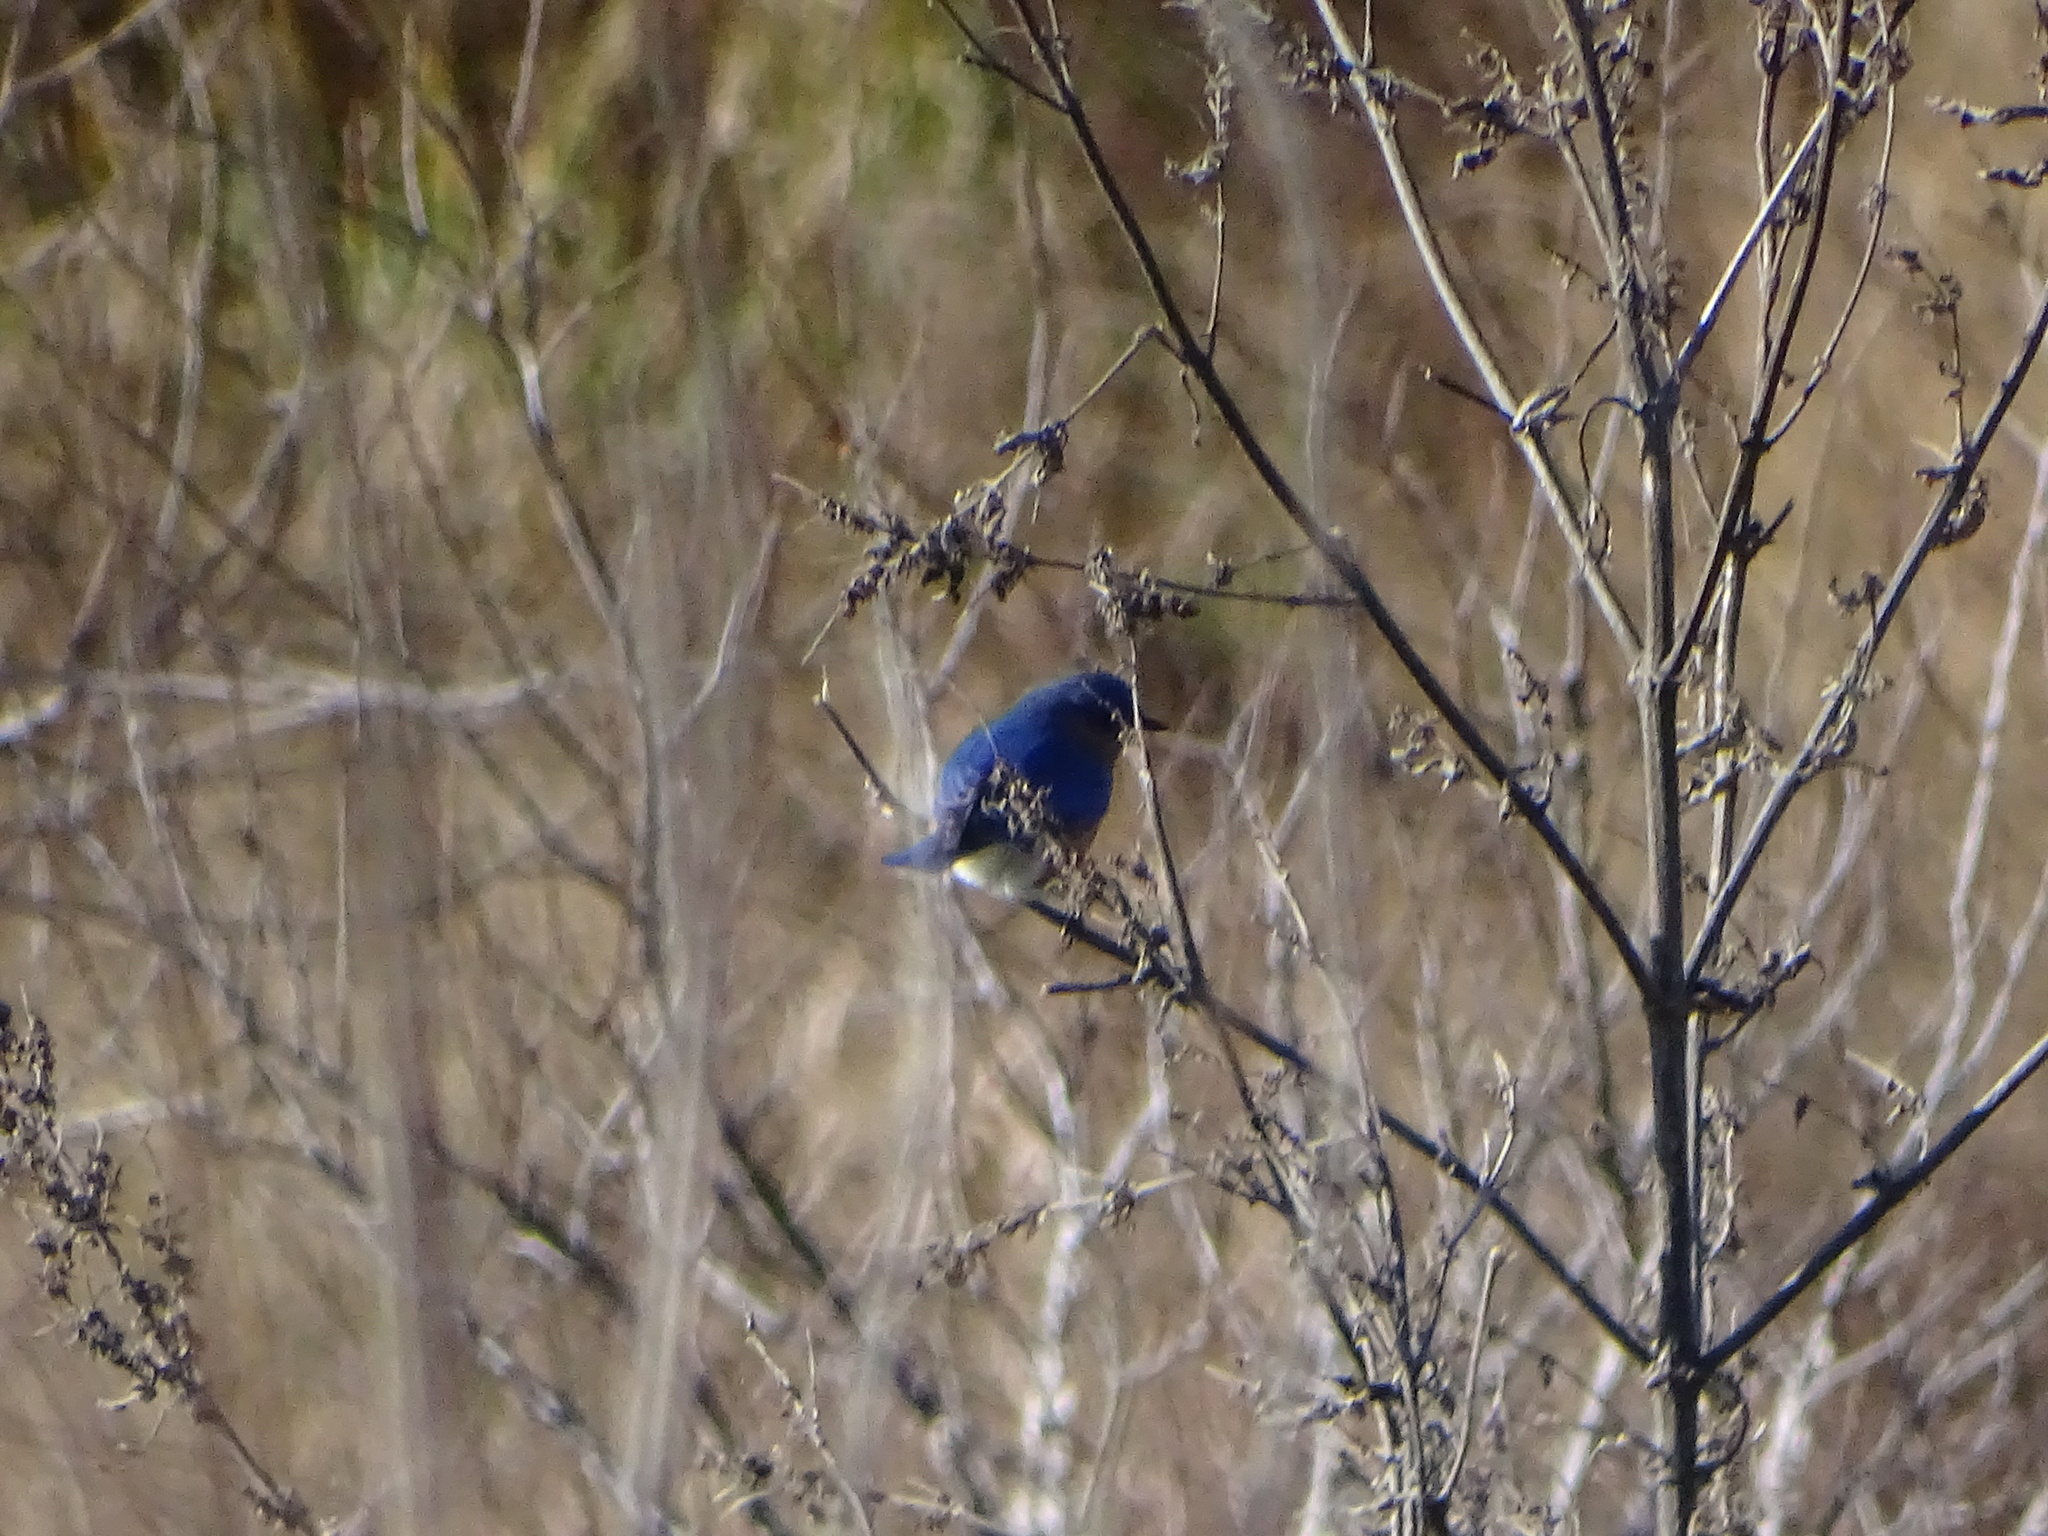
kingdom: Animalia
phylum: Chordata
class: Aves
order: Passeriformes
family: Turdidae
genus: Sialia
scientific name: Sialia sialis
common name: Eastern bluebird
